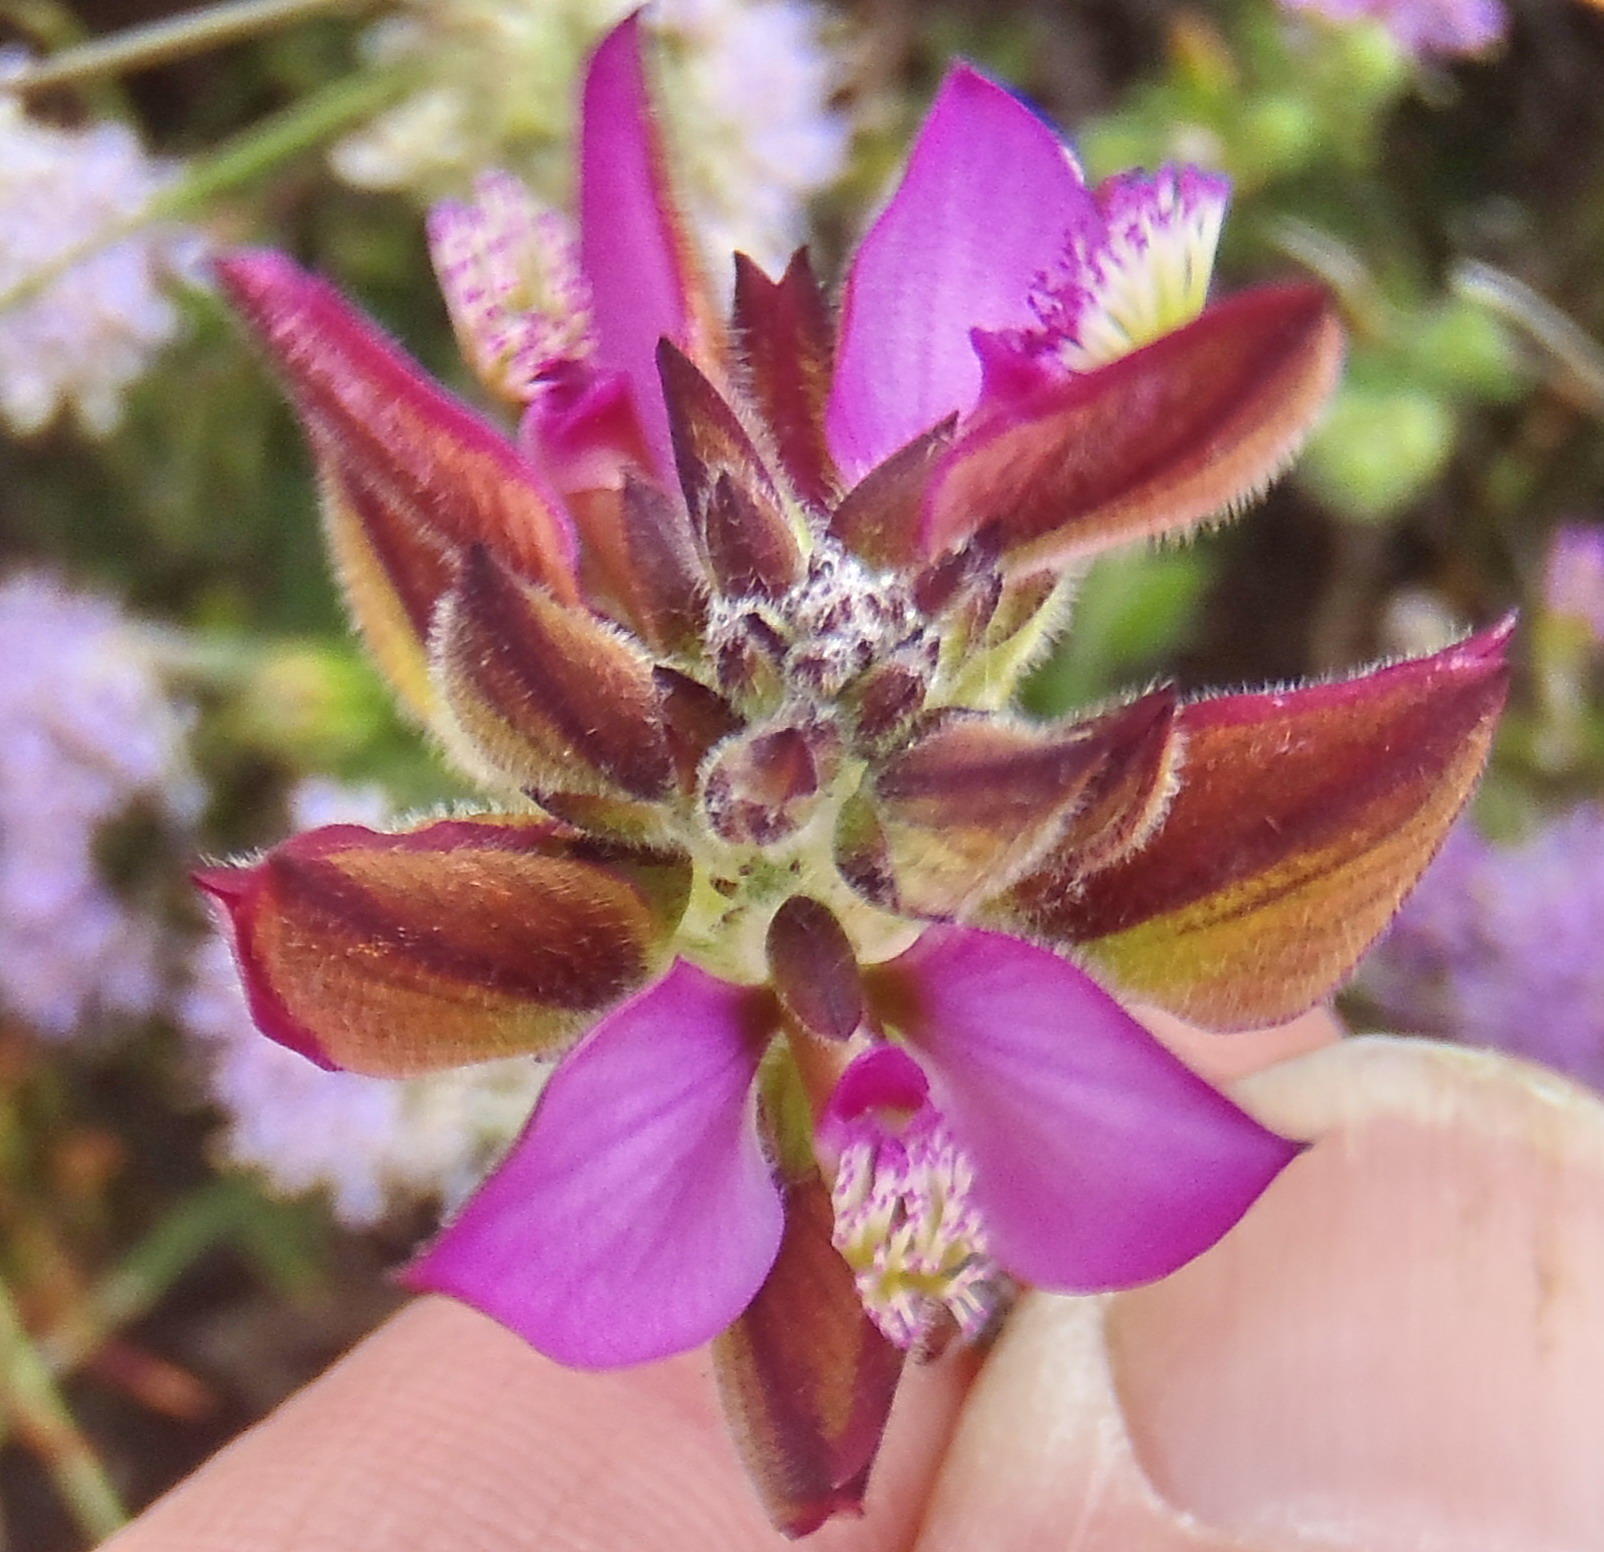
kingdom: Plantae
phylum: Tracheophyta
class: Magnoliopsida
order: Fabales
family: Polygalaceae
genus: Polygala
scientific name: Polygala pubiflora
